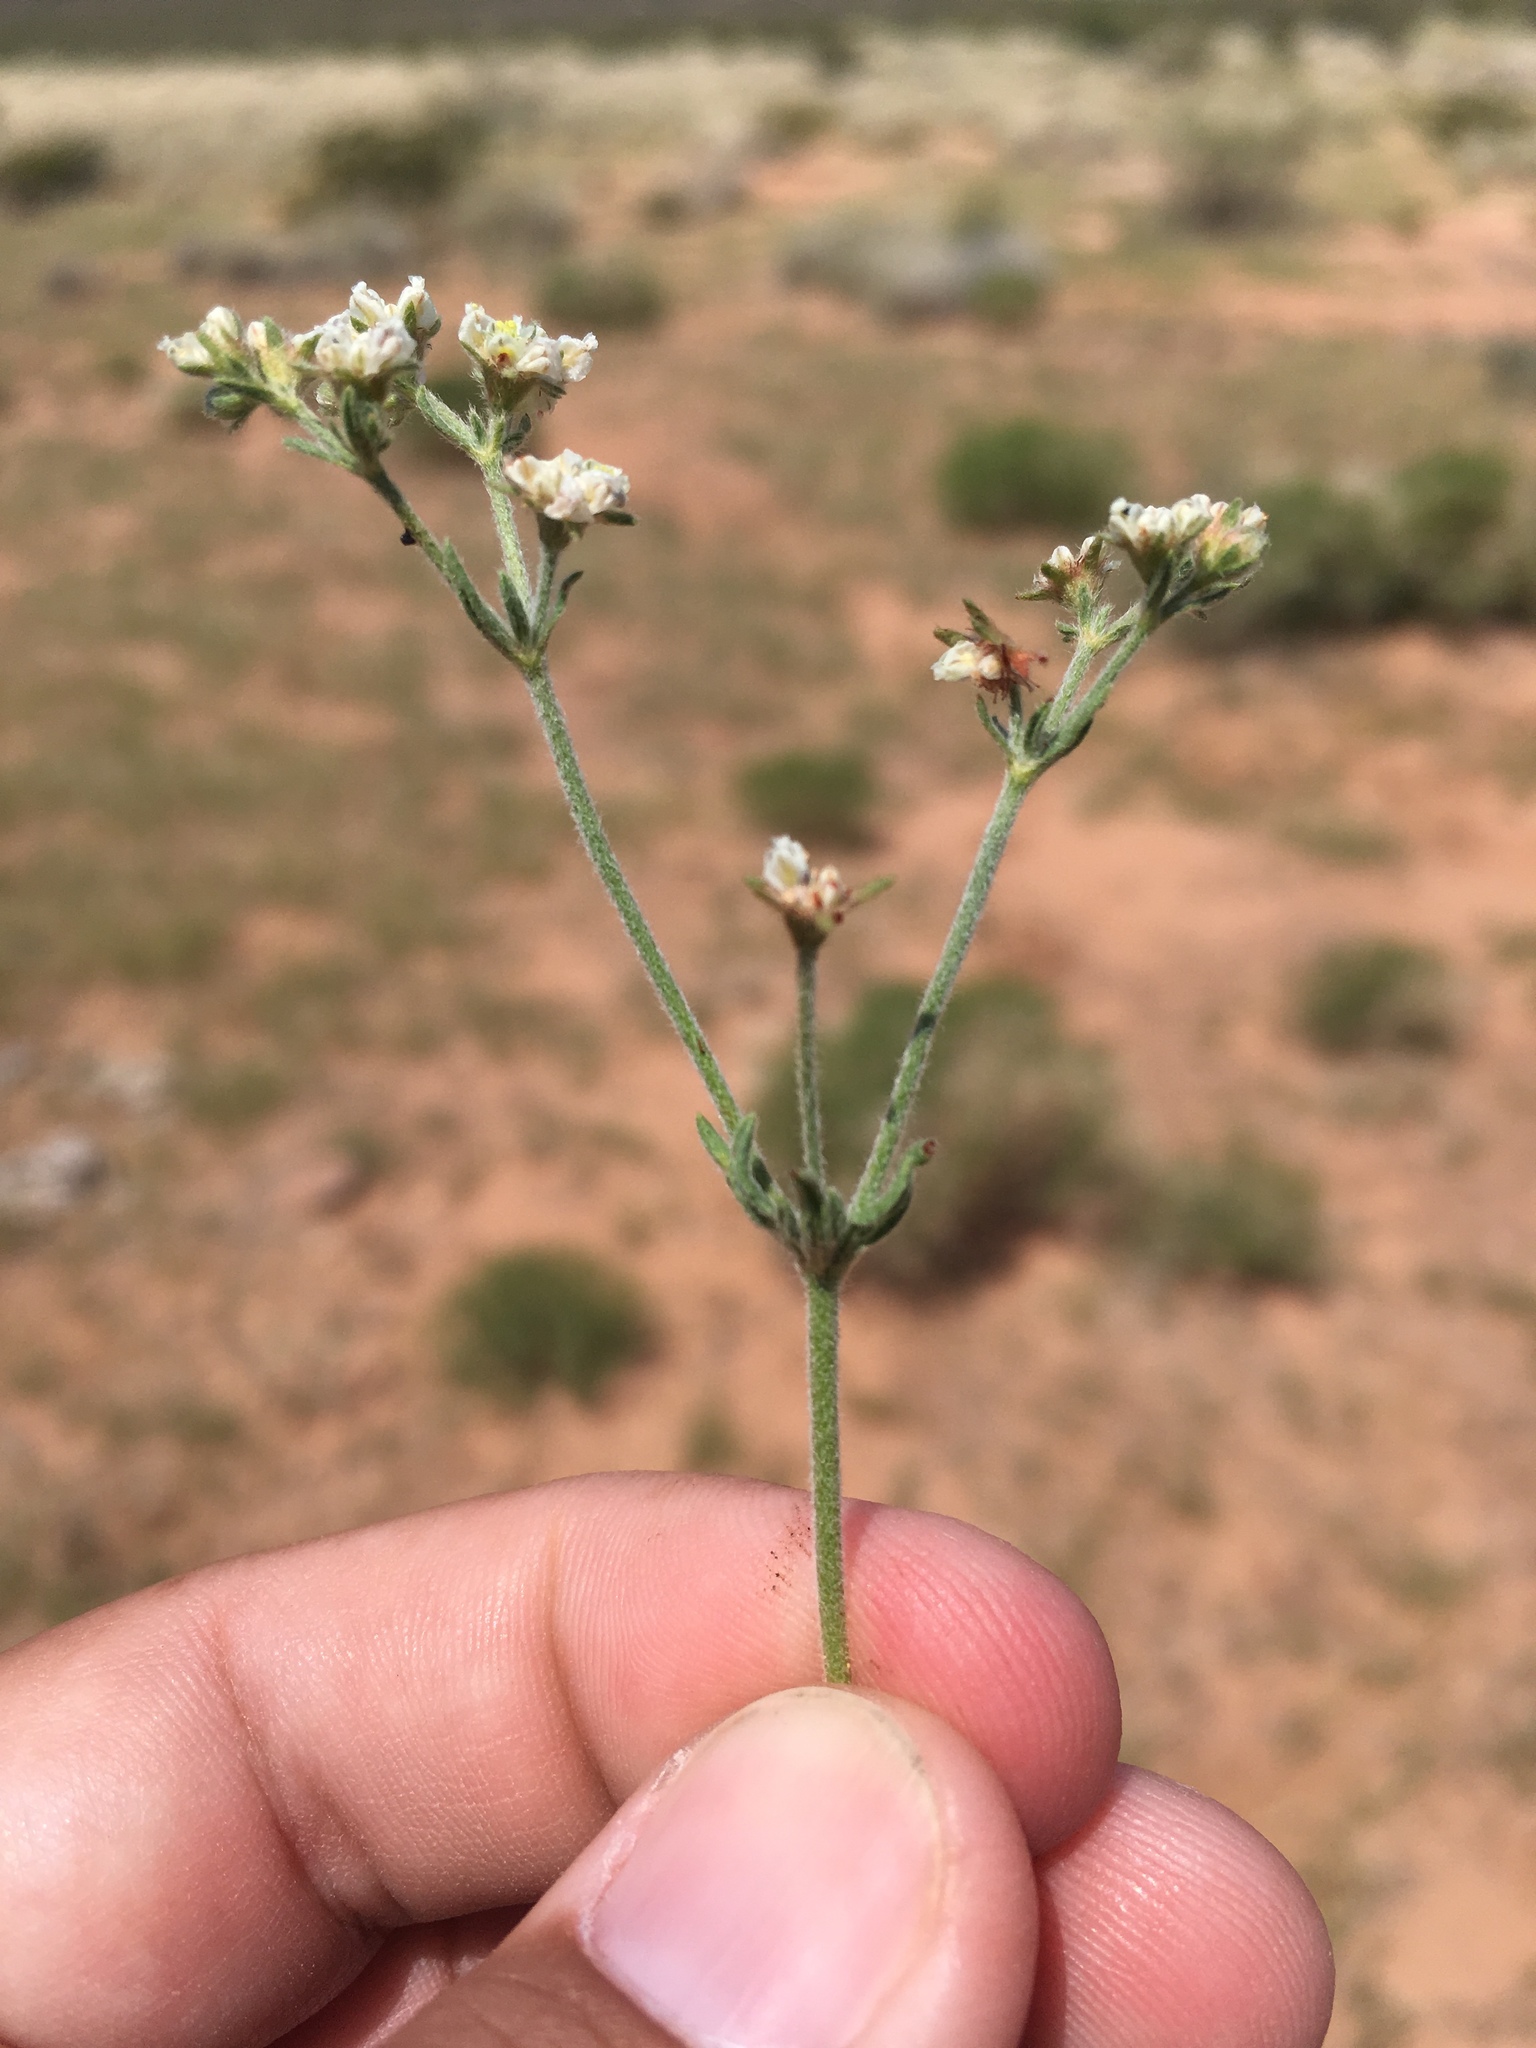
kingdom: Plantae
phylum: Tracheophyta
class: Magnoliopsida
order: Caryophyllales
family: Polygonaceae
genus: Eriogonum
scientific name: Eriogonum abertianum
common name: Abert's wild buckwheat
